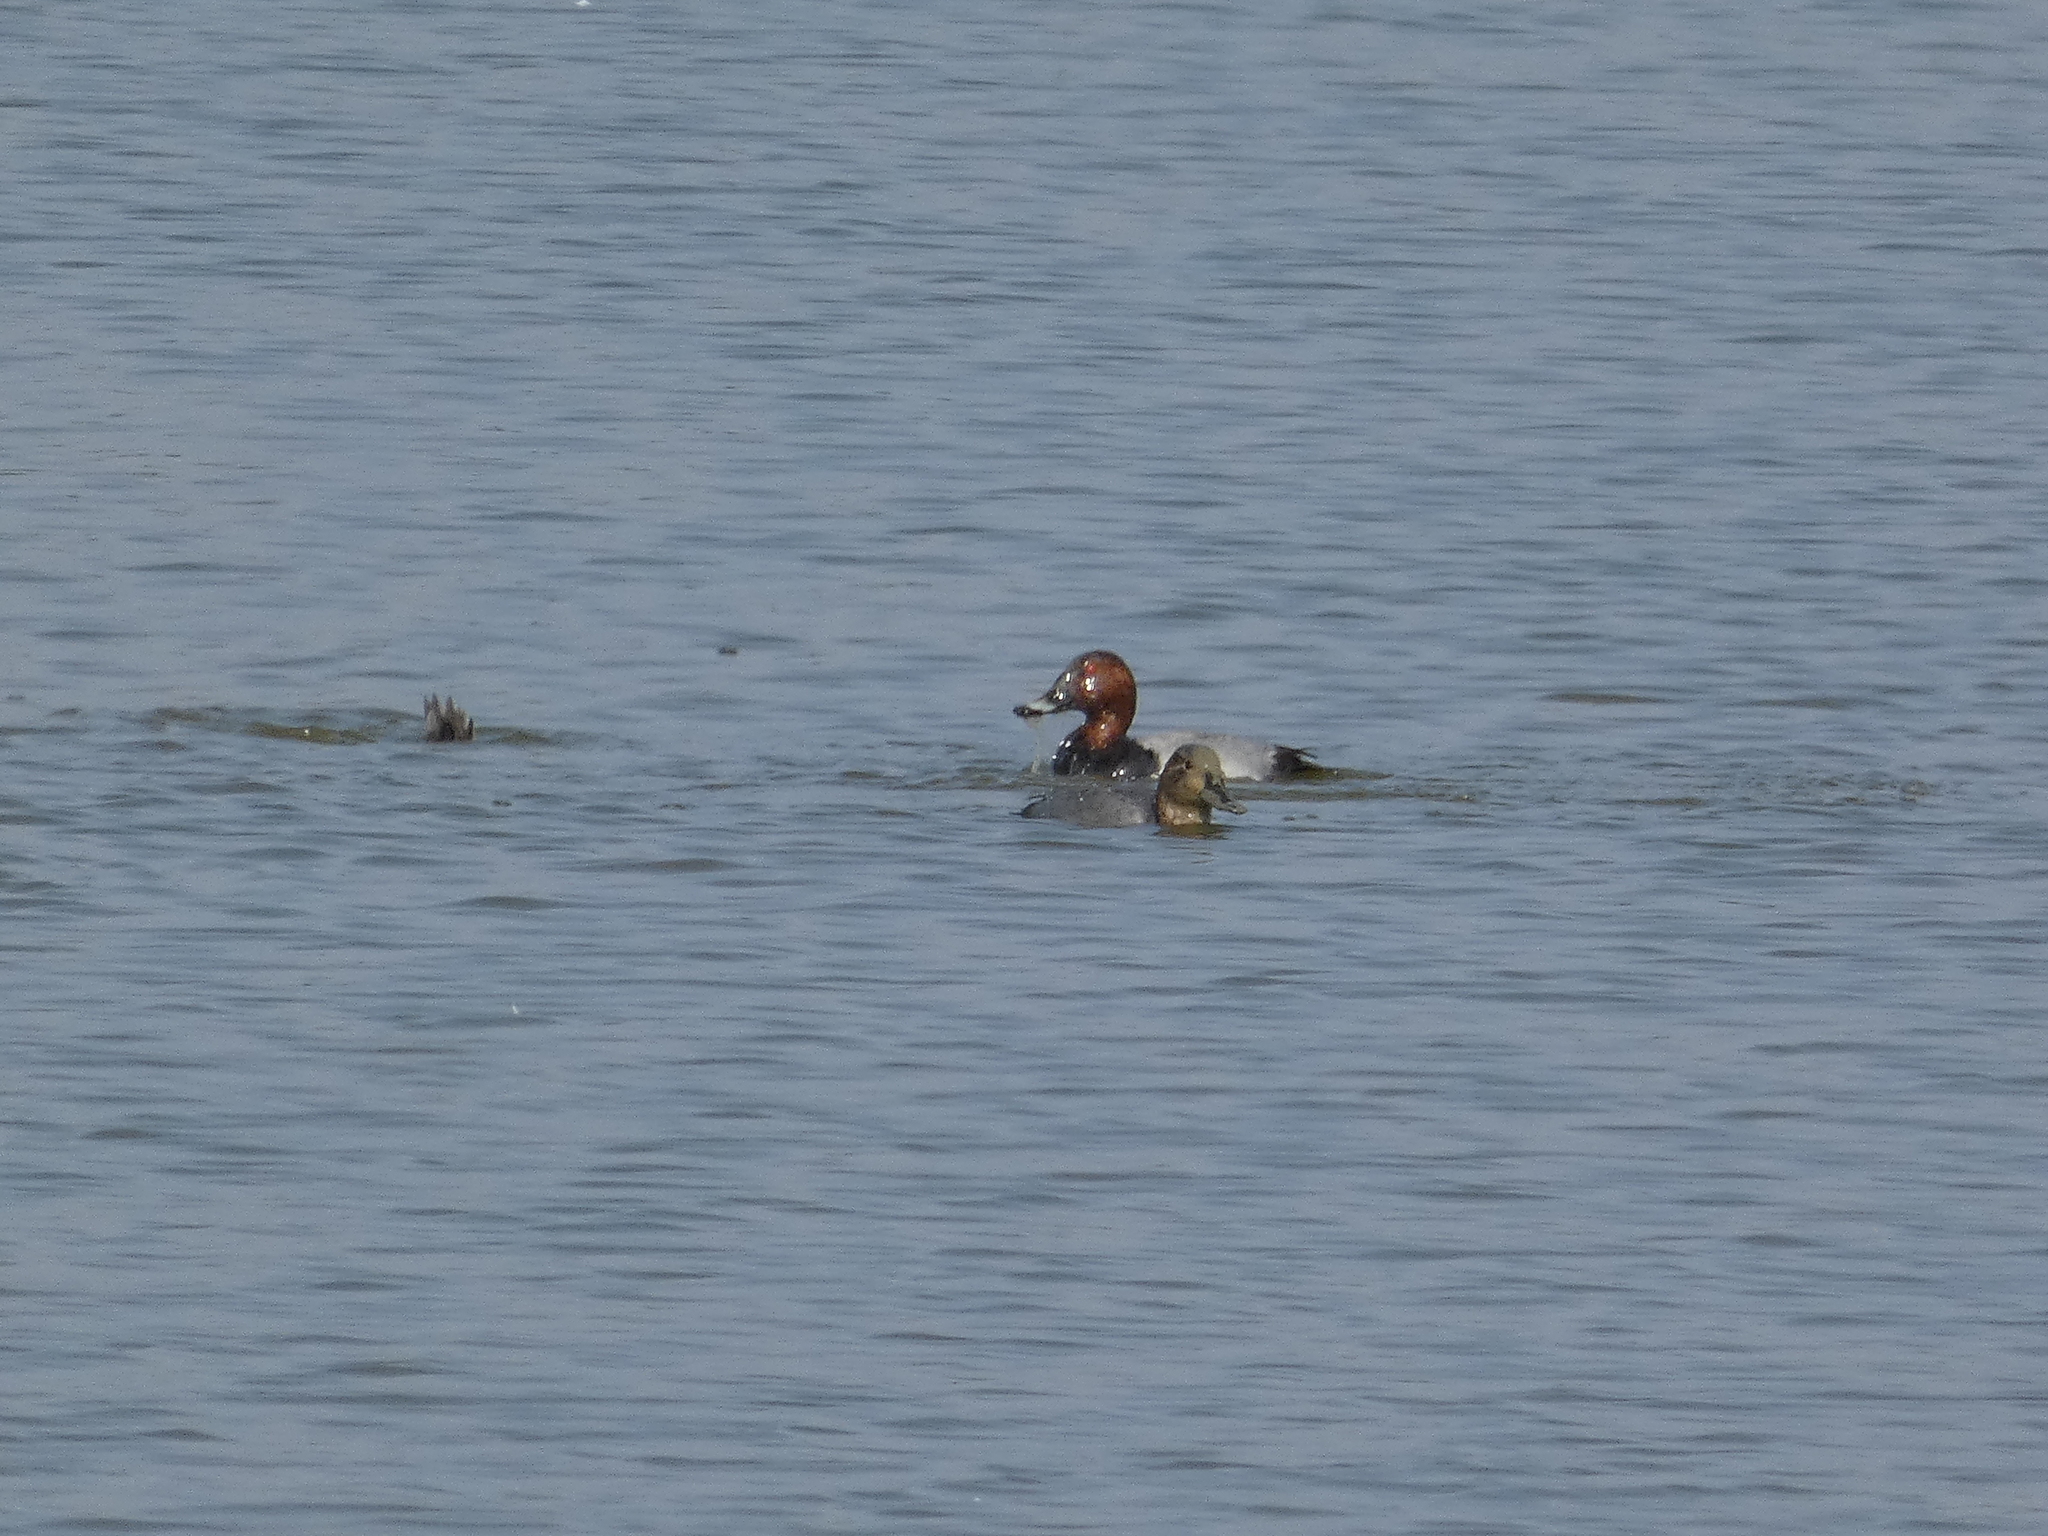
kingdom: Animalia
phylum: Chordata
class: Aves
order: Anseriformes
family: Anatidae
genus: Aythya
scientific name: Aythya ferina
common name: Common pochard
